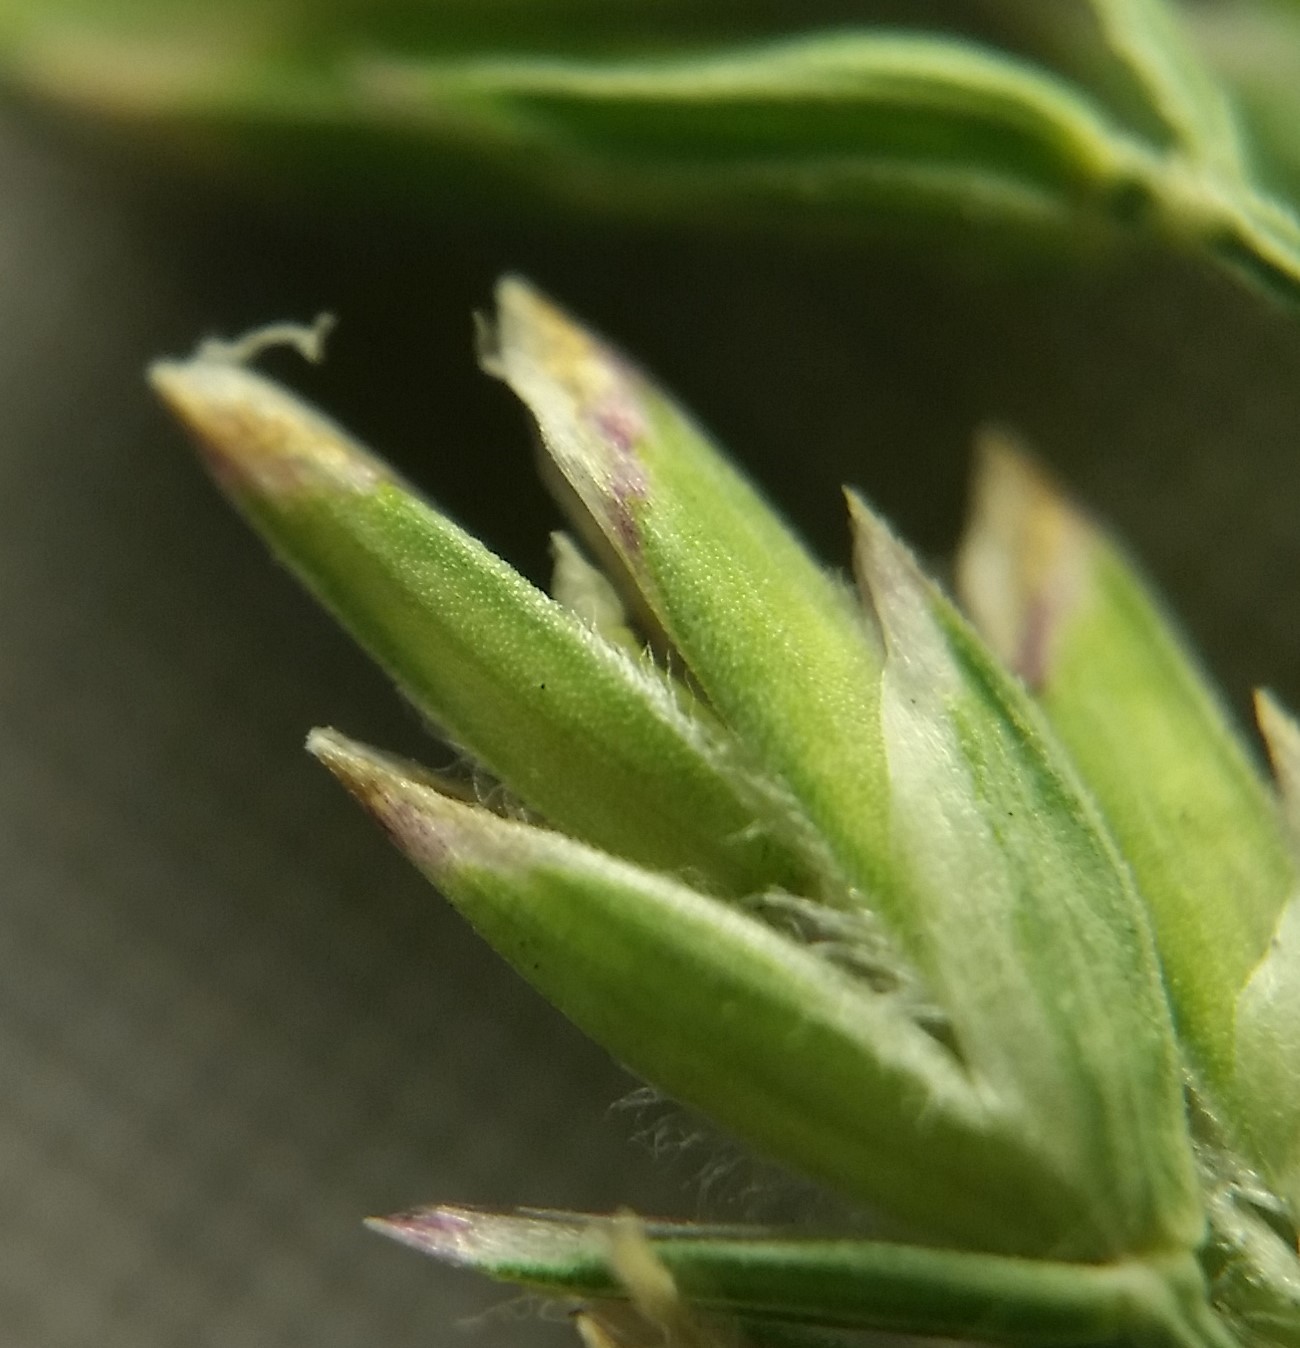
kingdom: Plantae
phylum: Tracheophyta
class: Liliopsida
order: Poales
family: Poaceae
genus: Poa
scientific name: Poa compressa
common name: Canada bluegrass
